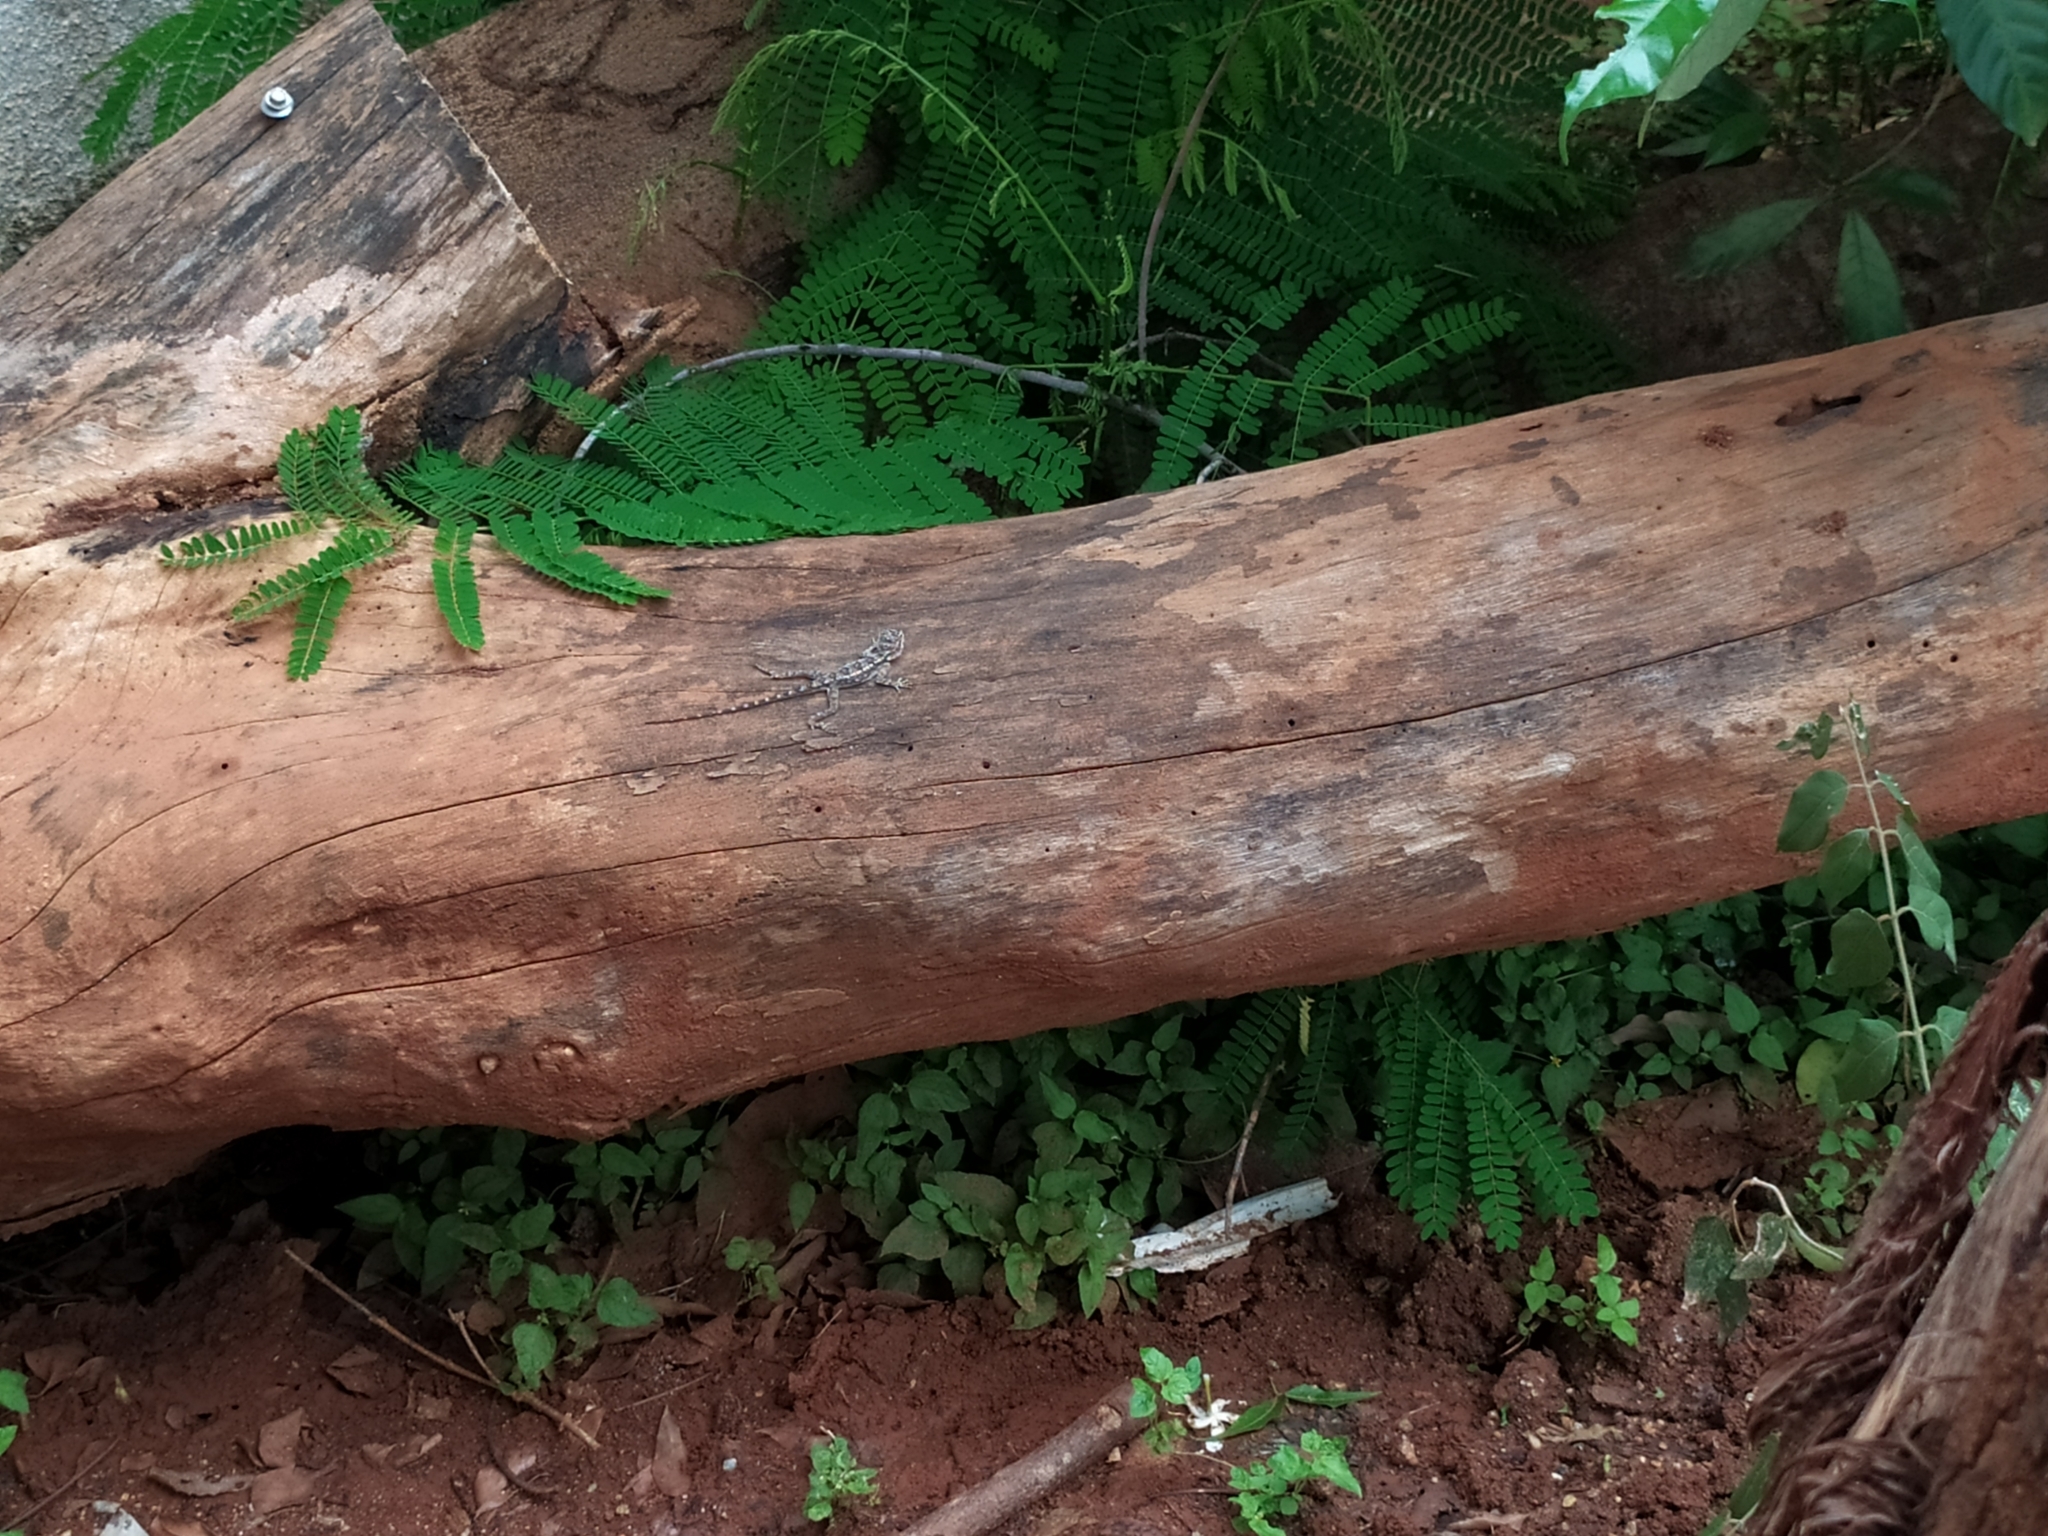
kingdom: Animalia
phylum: Chordata
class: Squamata
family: Agamidae
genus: Psammophilus
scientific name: Psammophilus dorsalis
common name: South indian rock agama
